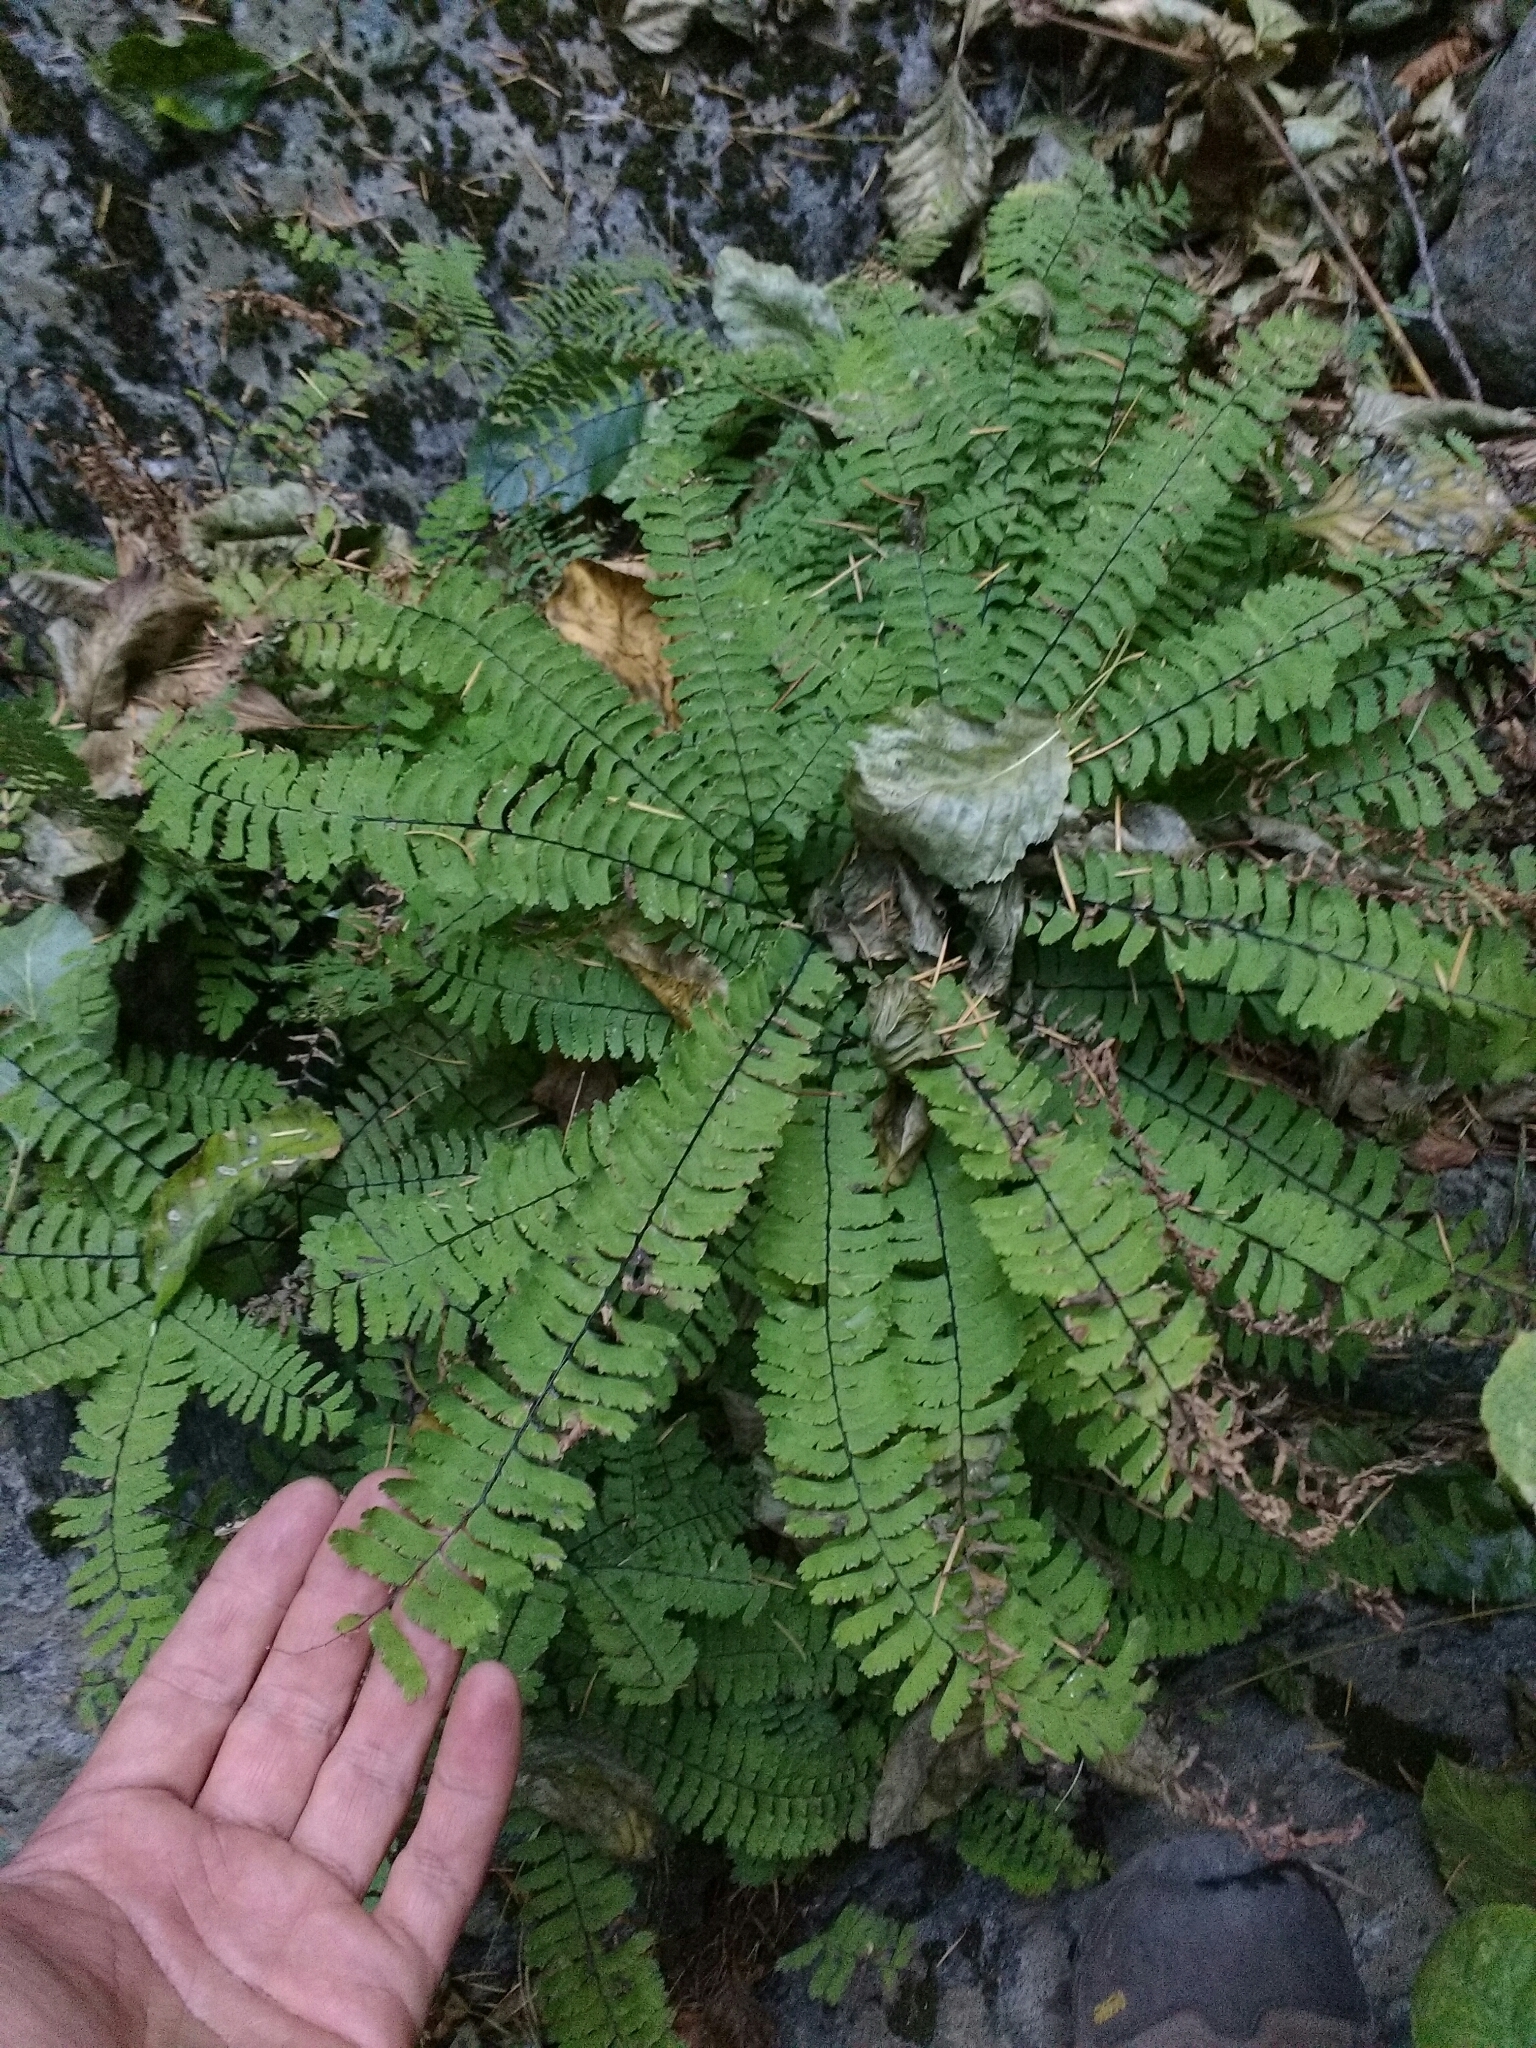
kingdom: Plantae
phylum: Tracheophyta
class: Polypodiopsida
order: Polypodiales
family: Pteridaceae
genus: Adiantum
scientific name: Adiantum aleuticum
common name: Aleutian maidenhair fern
